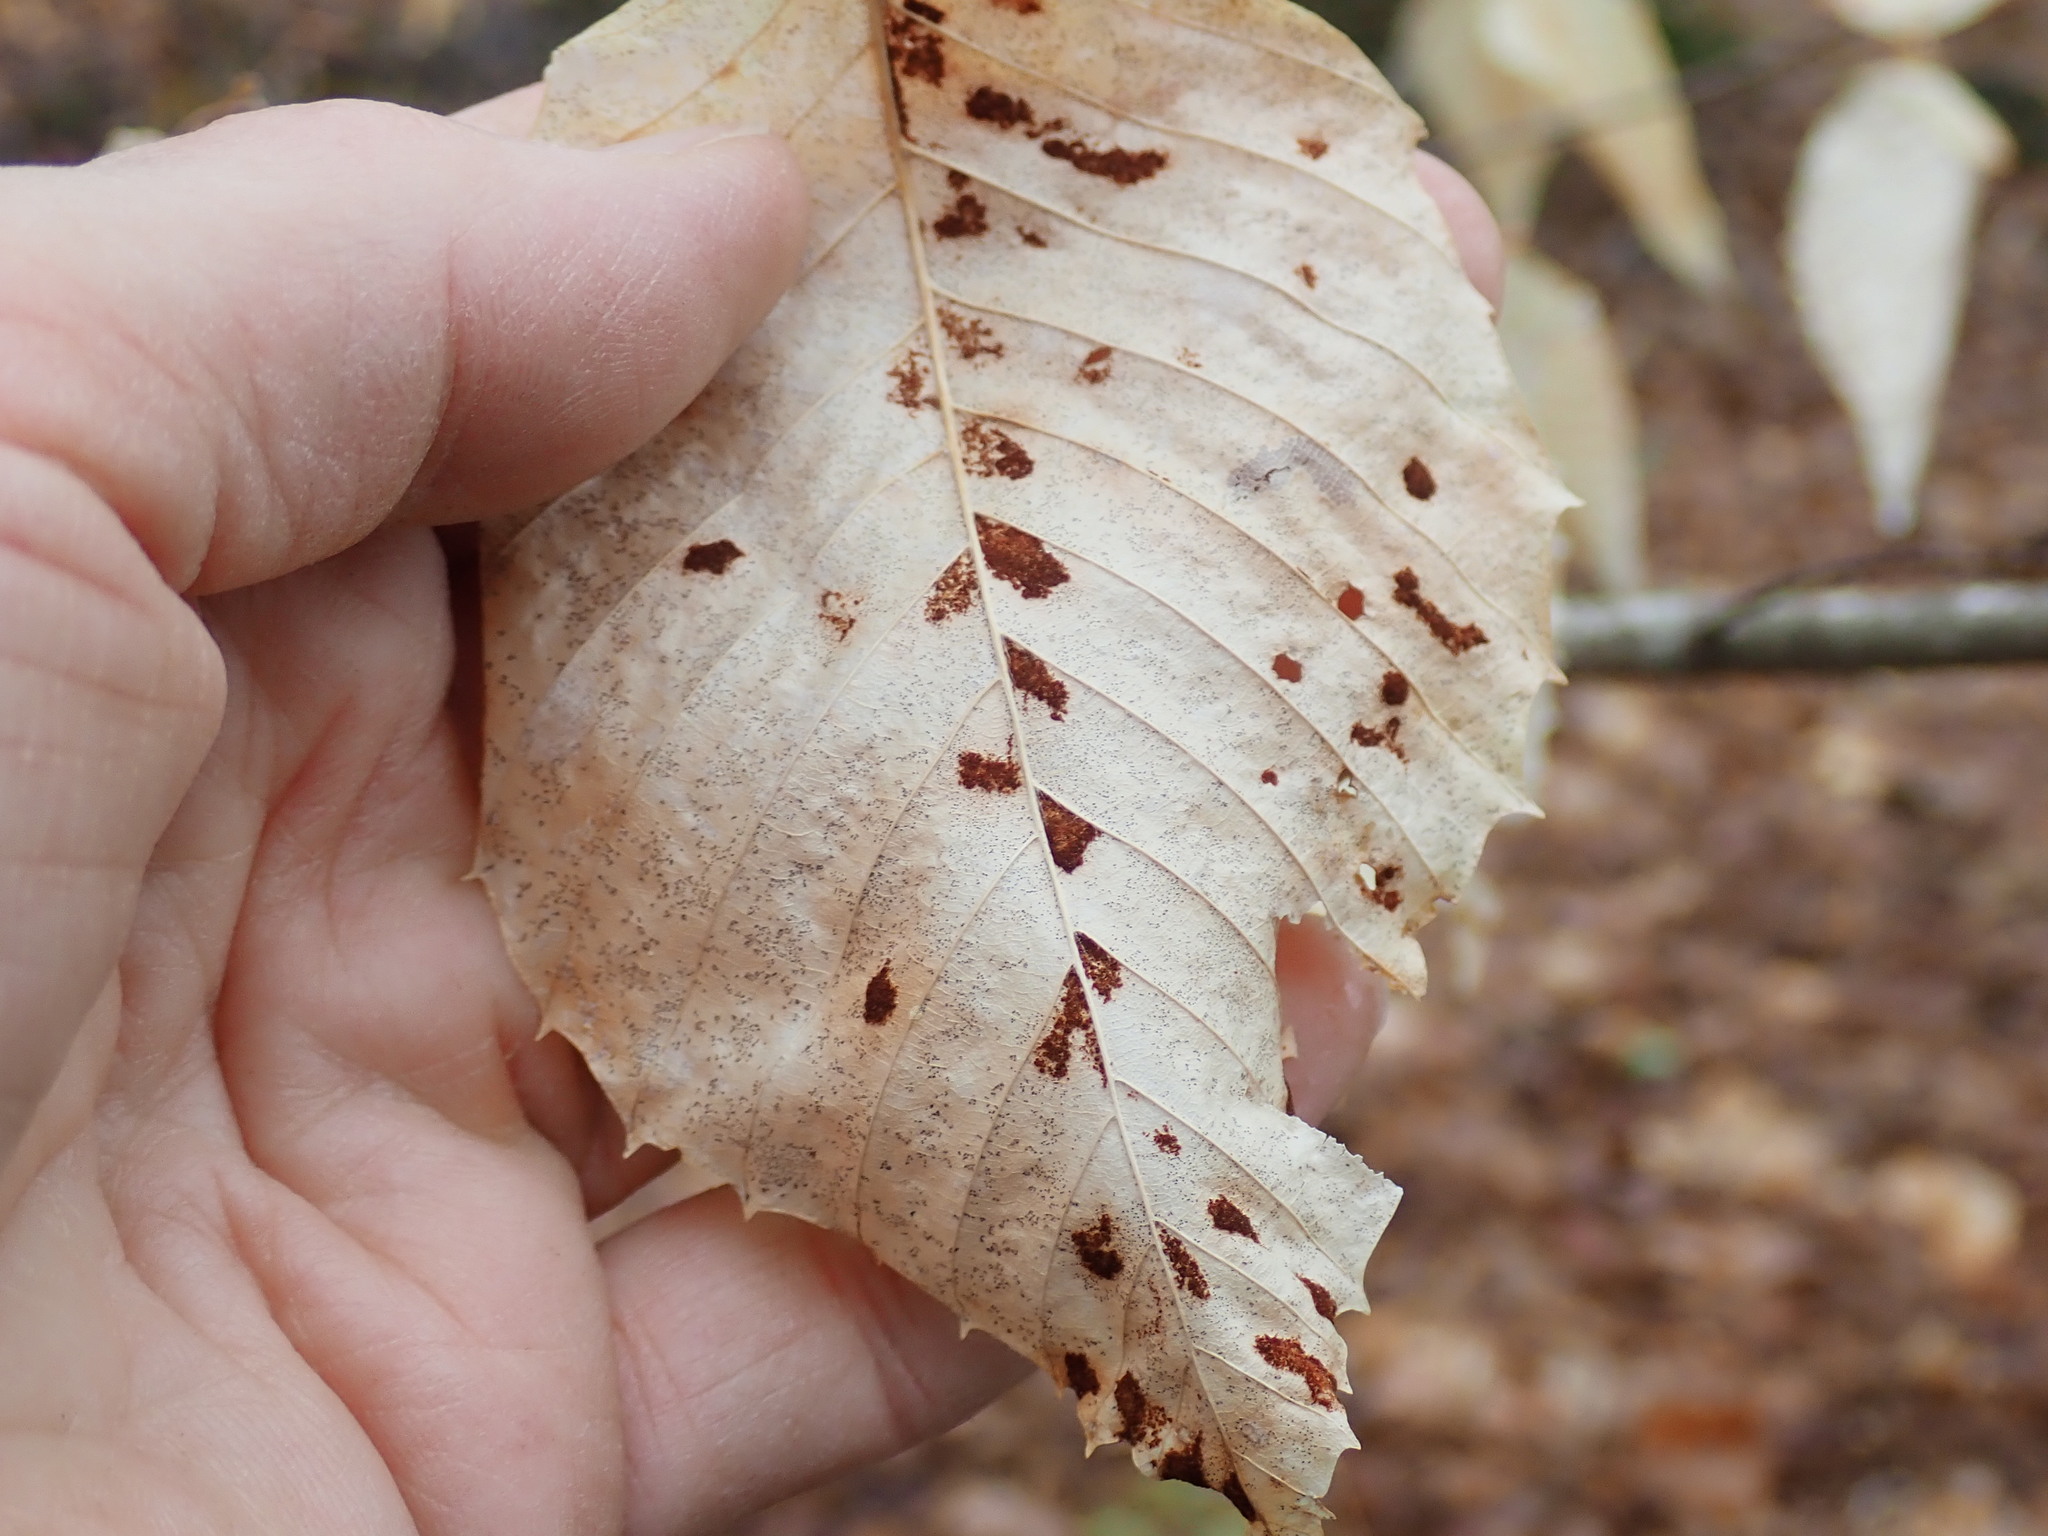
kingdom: Animalia
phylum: Arthropoda
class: Arachnida
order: Trombidiformes
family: Eriophyidae
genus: Acalitus
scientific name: Acalitus
